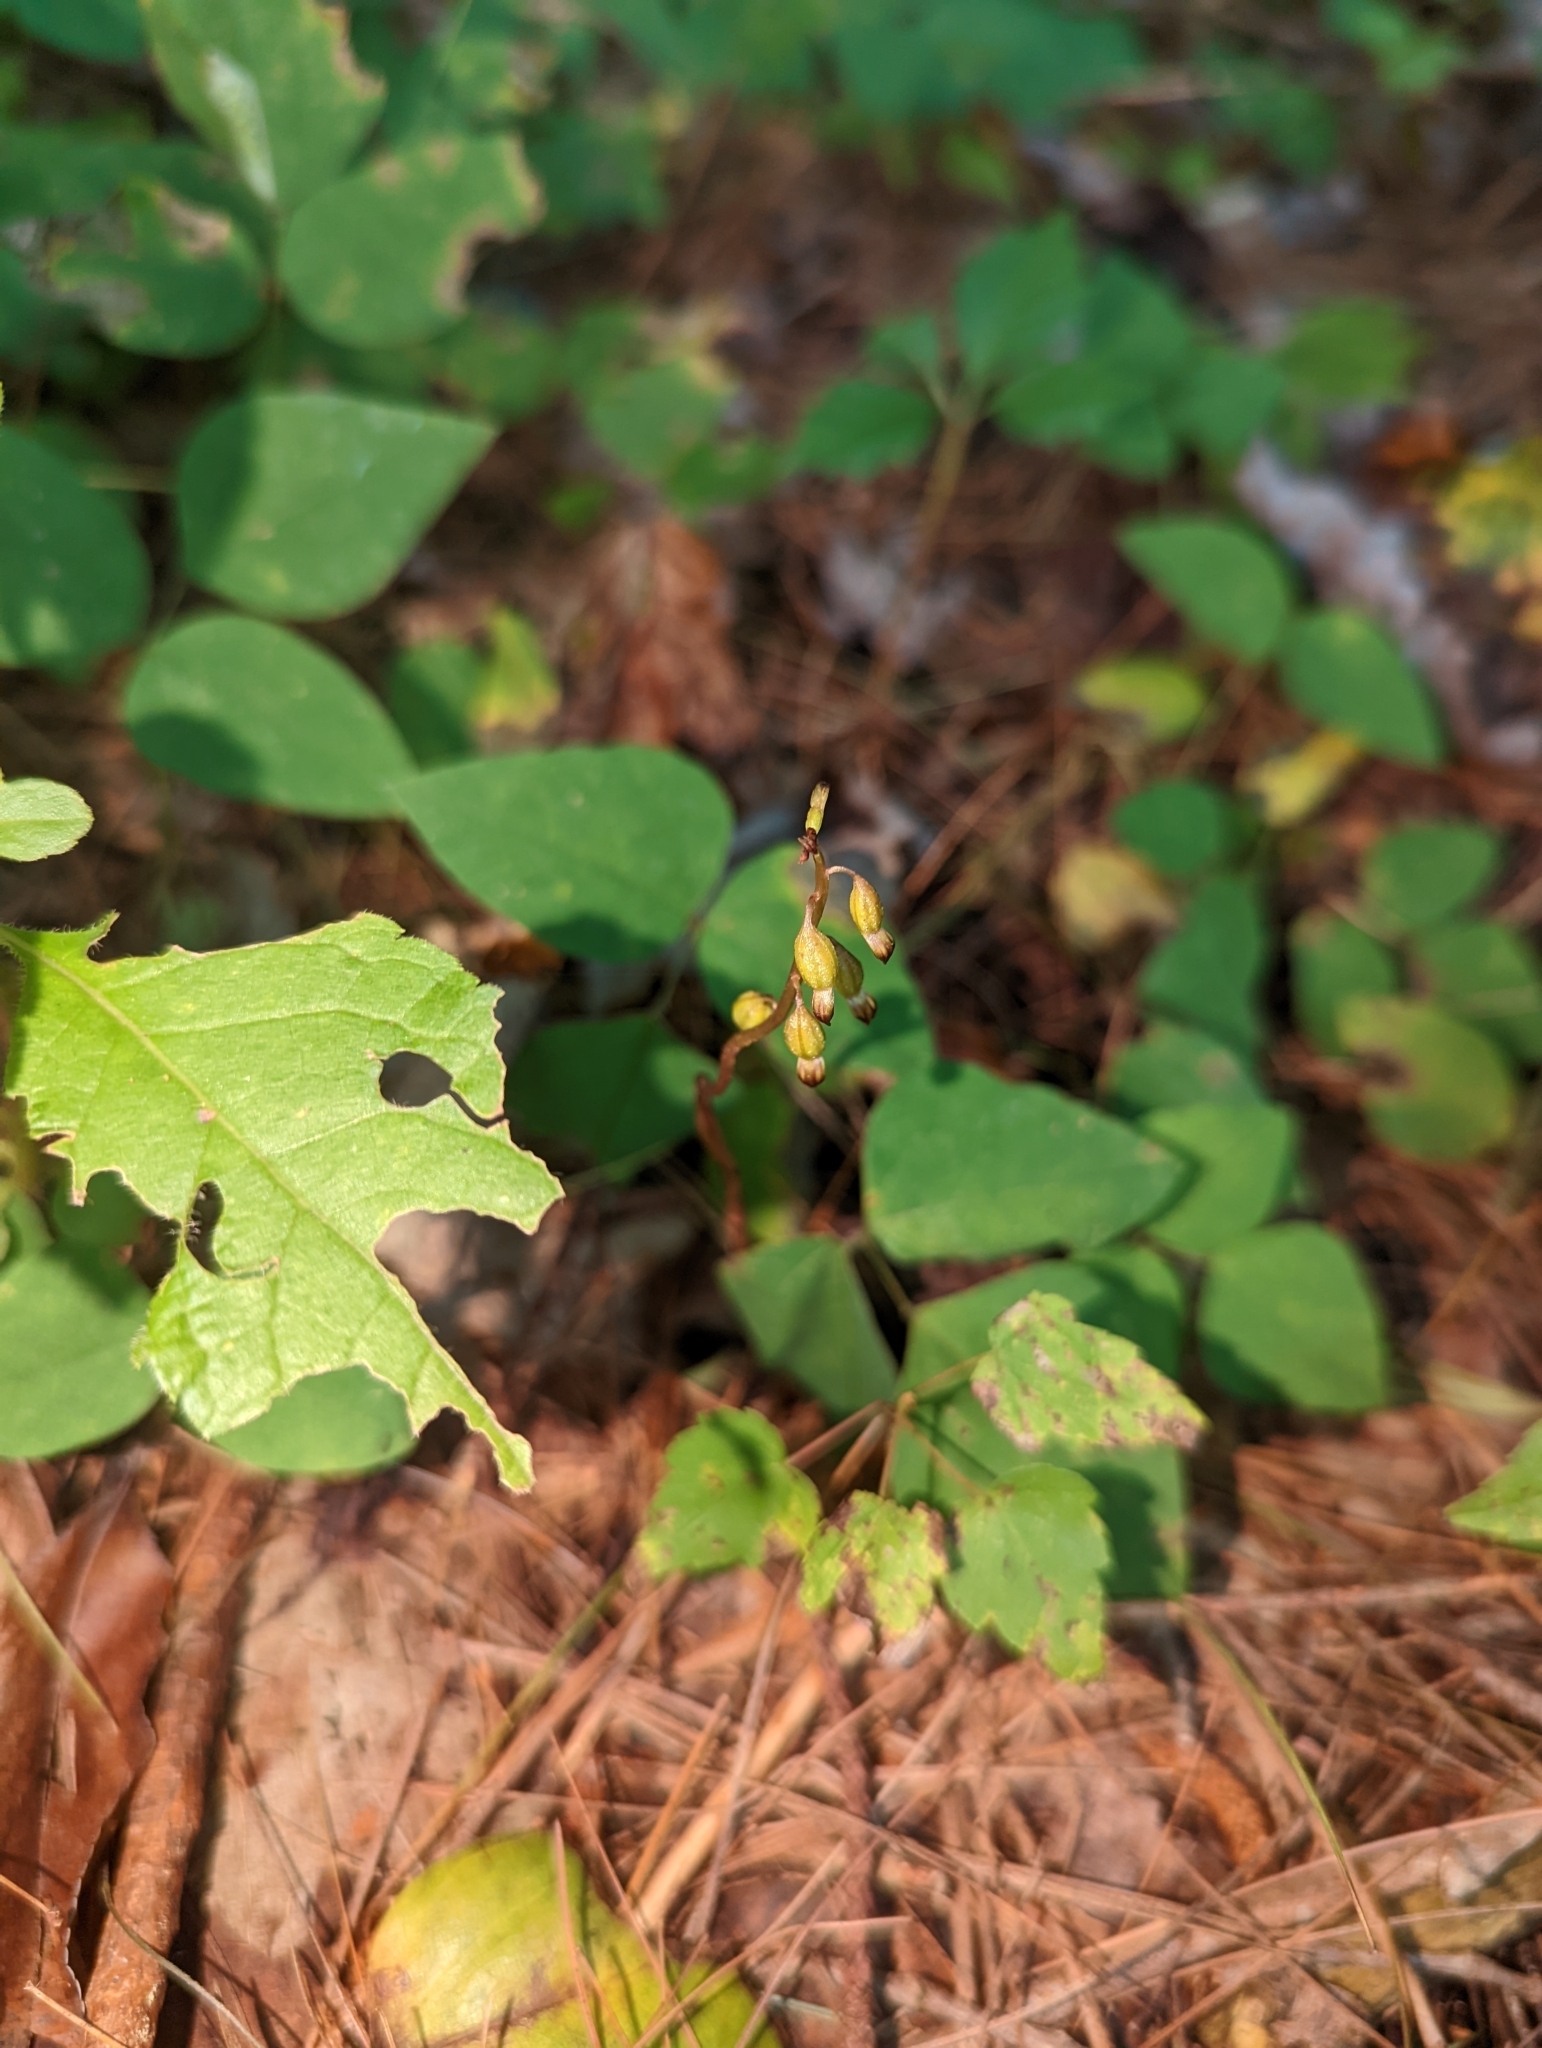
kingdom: Plantae
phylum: Tracheophyta
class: Liliopsida
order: Asparagales
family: Orchidaceae
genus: Corallorhiza
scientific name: Corallorhiza odontorhiza
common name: Autumn coralroot
